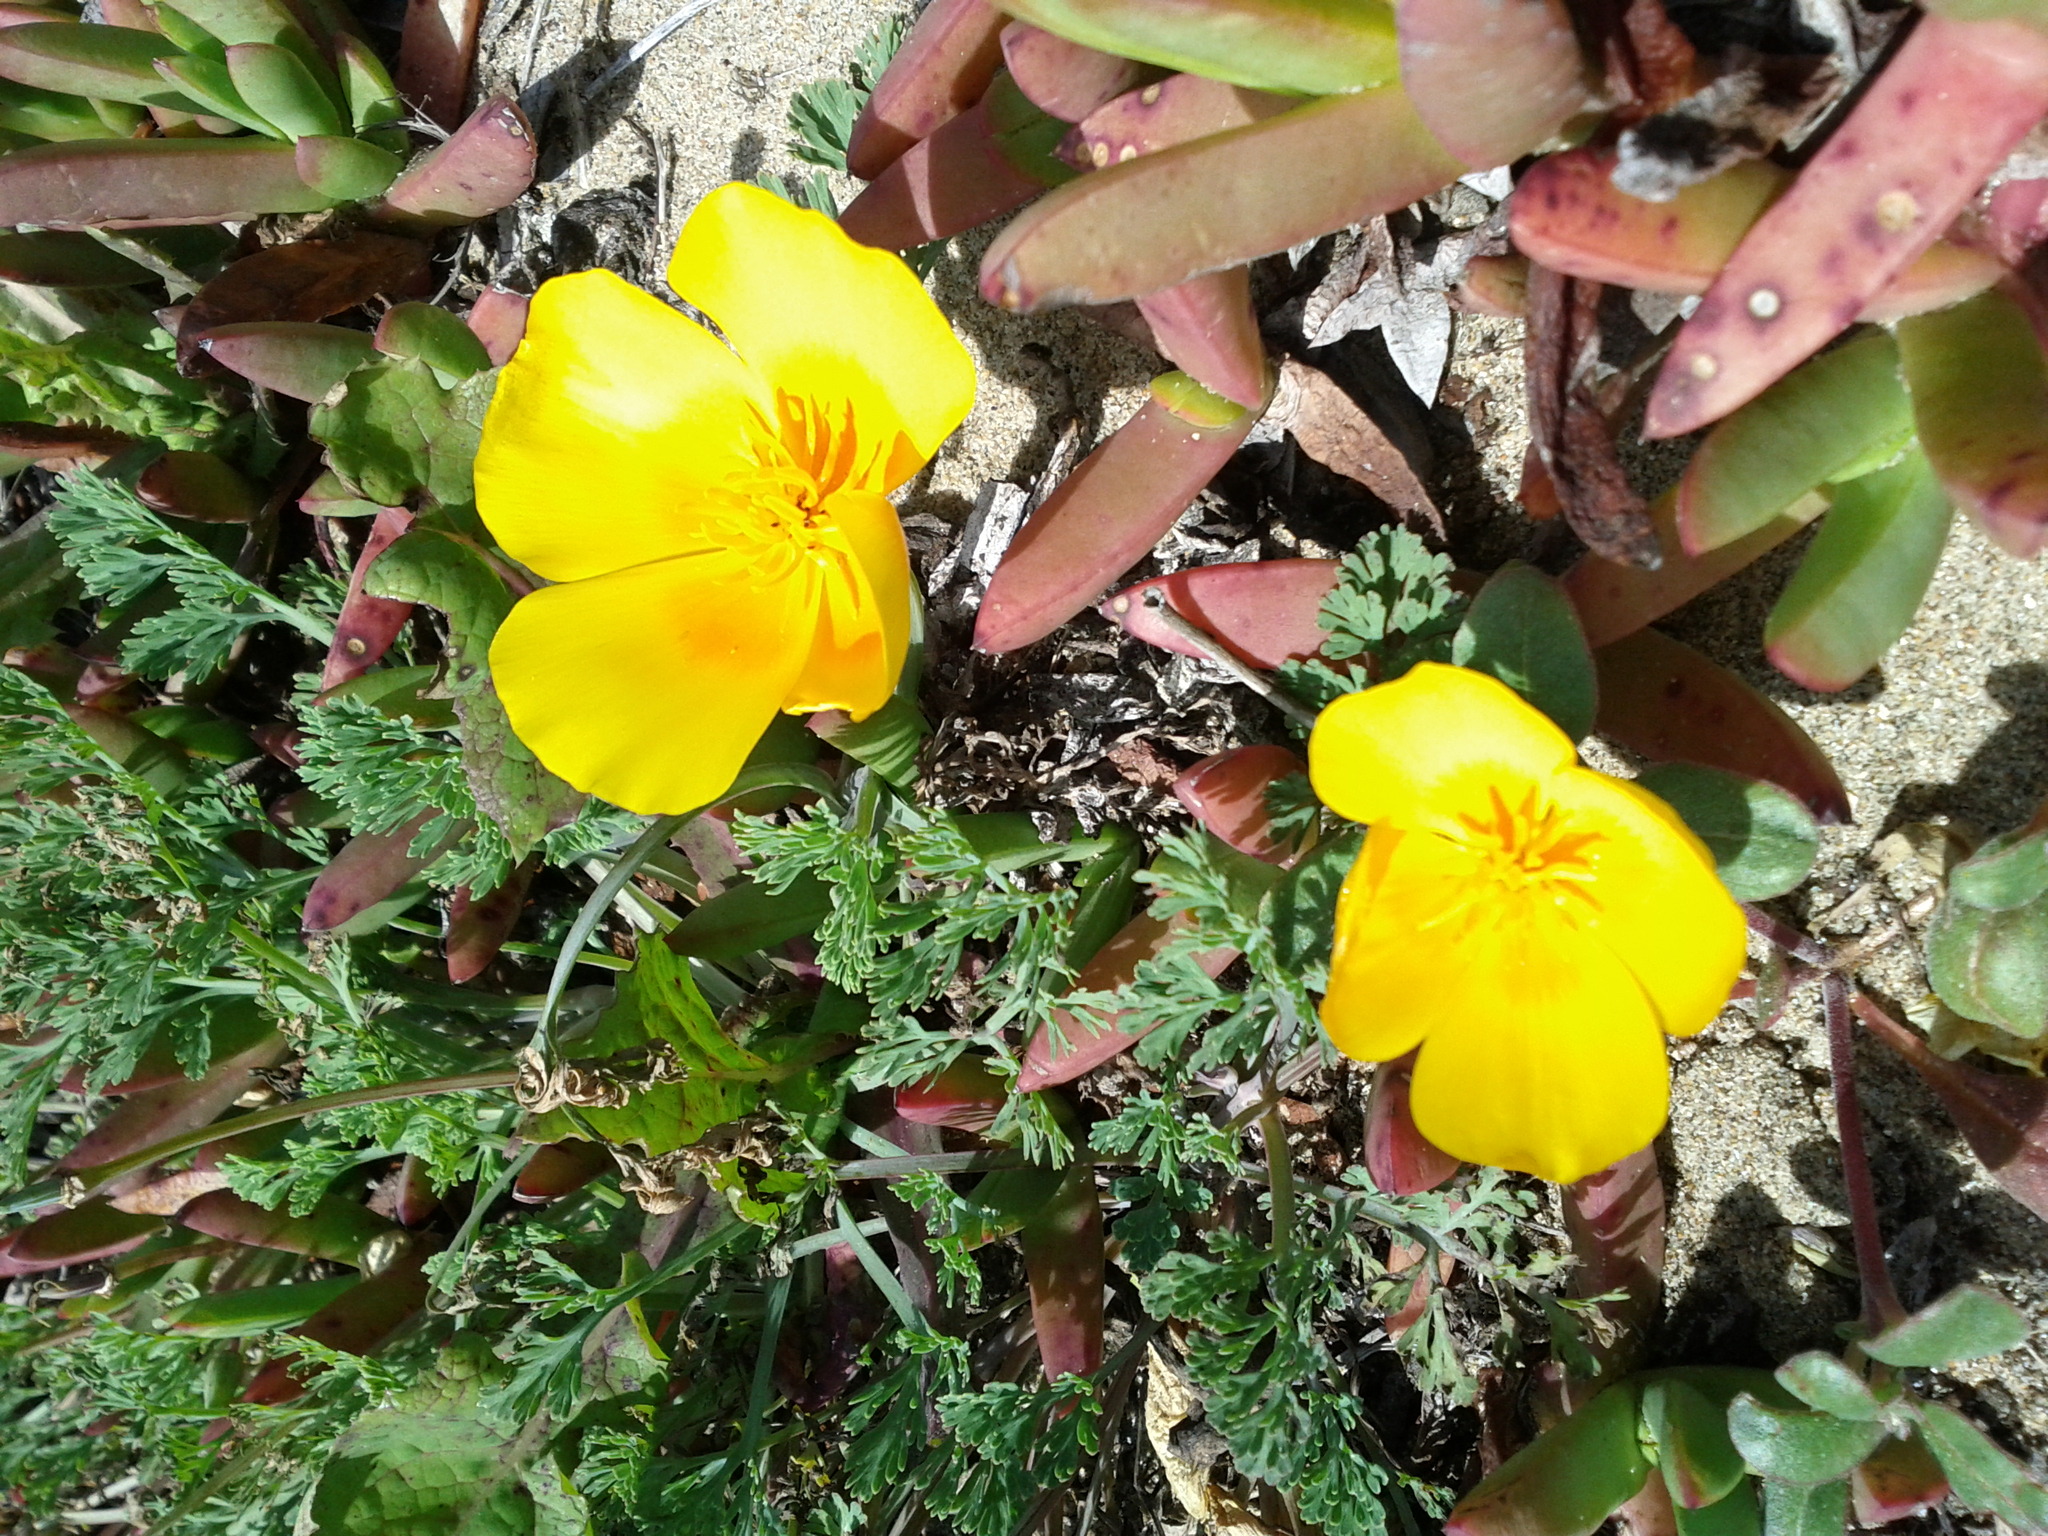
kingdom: Plantae
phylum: Tracheophyta
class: Magnoliopsida
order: Ranunculales
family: Papaveraceae
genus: Eschscholzia
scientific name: Eschscholzia californica
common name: California poppy
